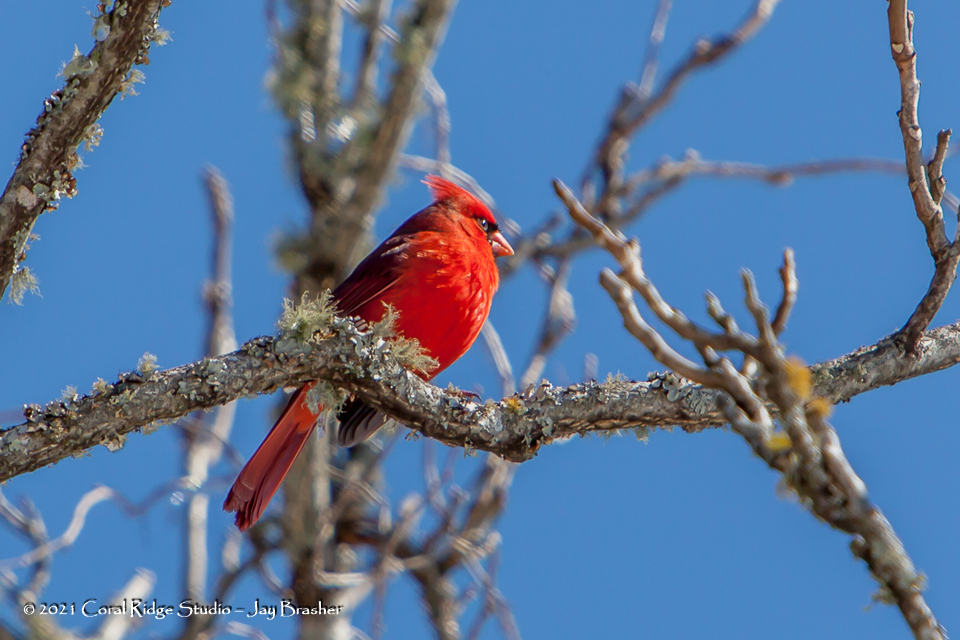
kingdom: Animalia
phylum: Chordata
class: Aves
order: Passeriformes
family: Cardinalidae
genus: Cardinalis
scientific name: Cardinalis cardinalis
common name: Northern cardinal
